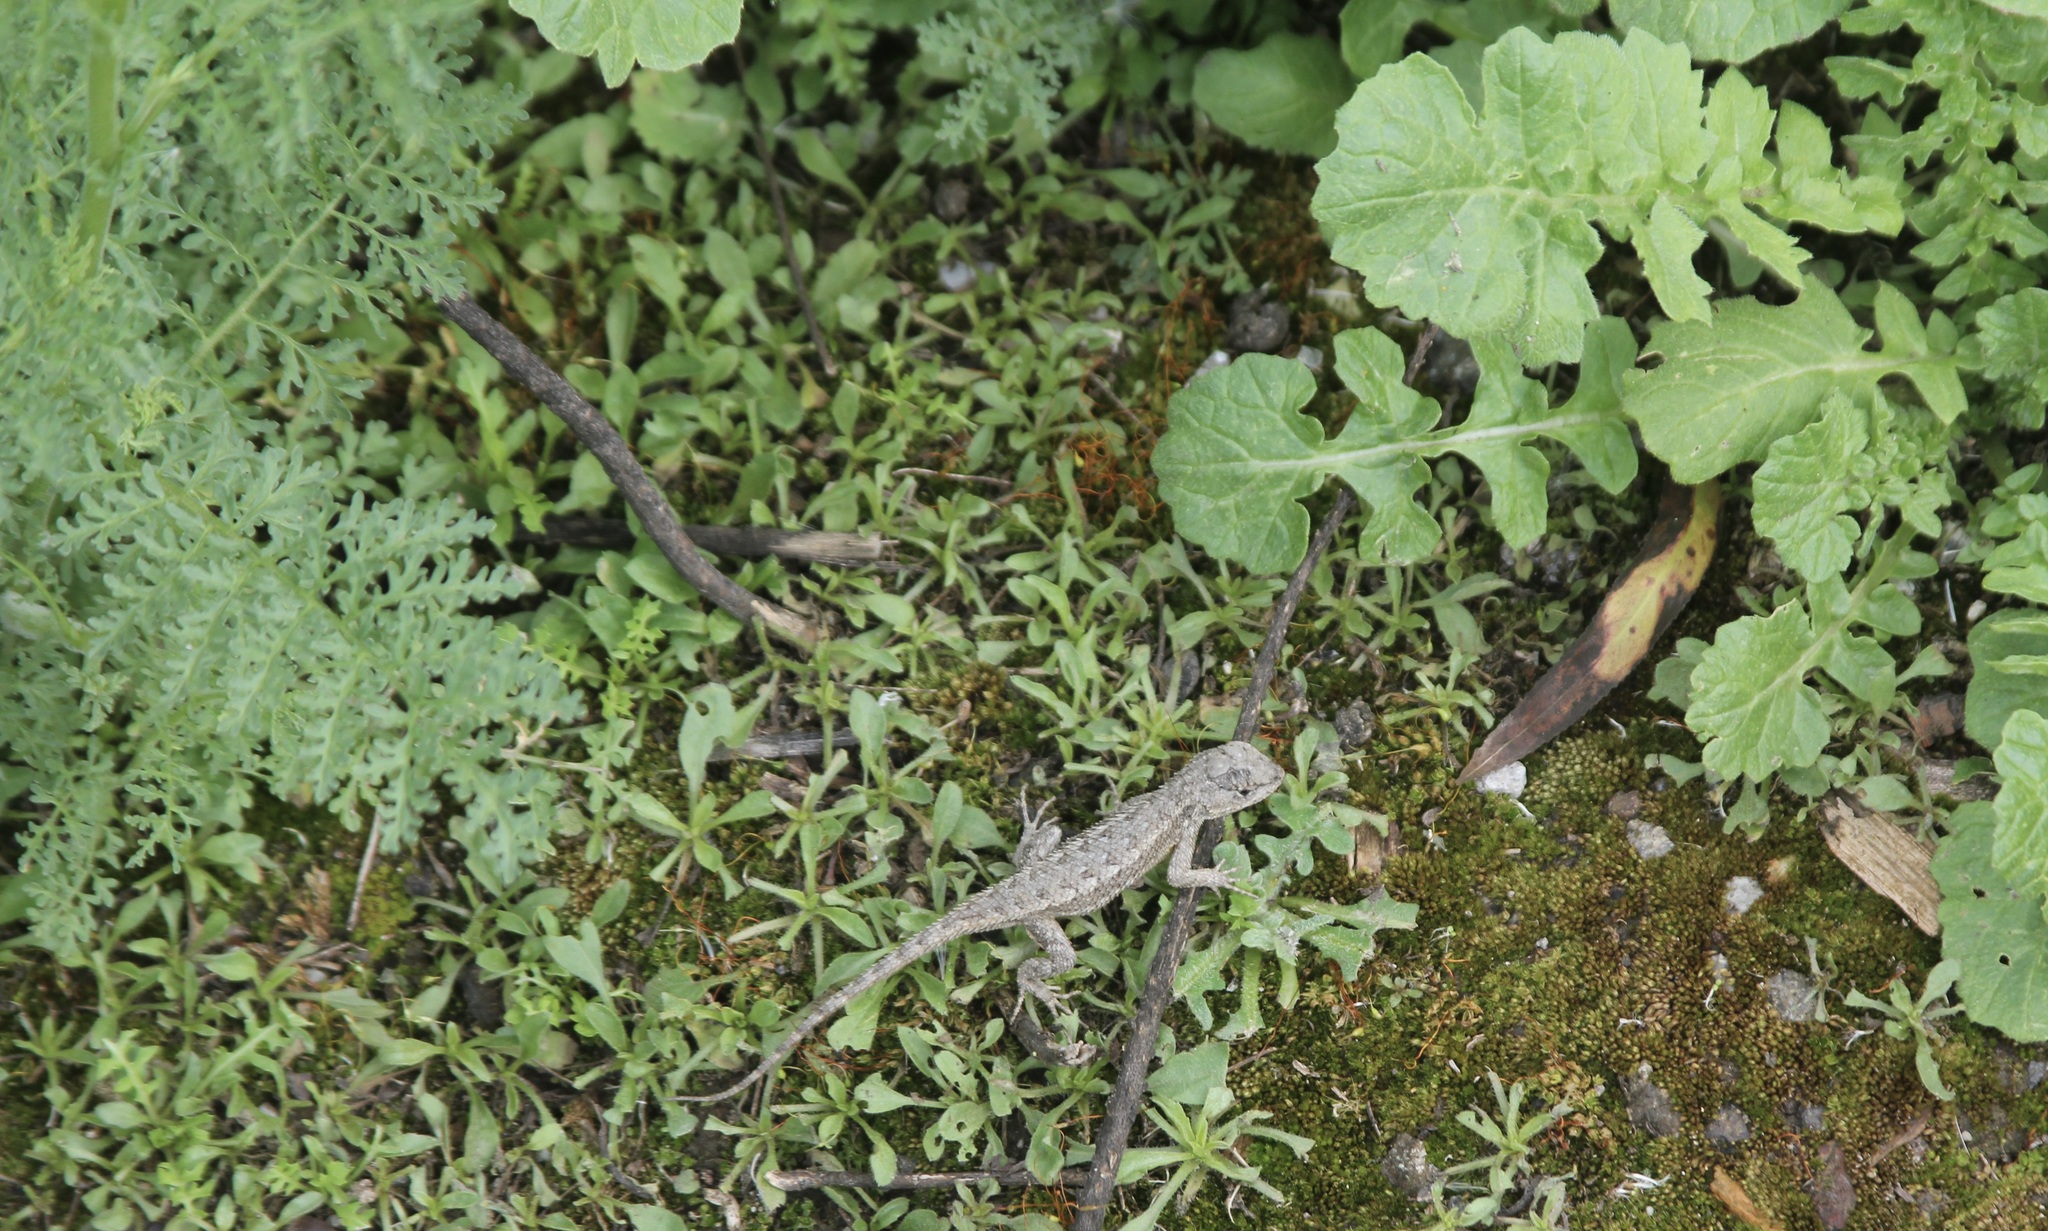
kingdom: Animalia
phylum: Chordata
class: Squamata
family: Phrynosomatidae
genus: Sceloporus
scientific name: Sceloporus occidentalis
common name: Western fence lizard
